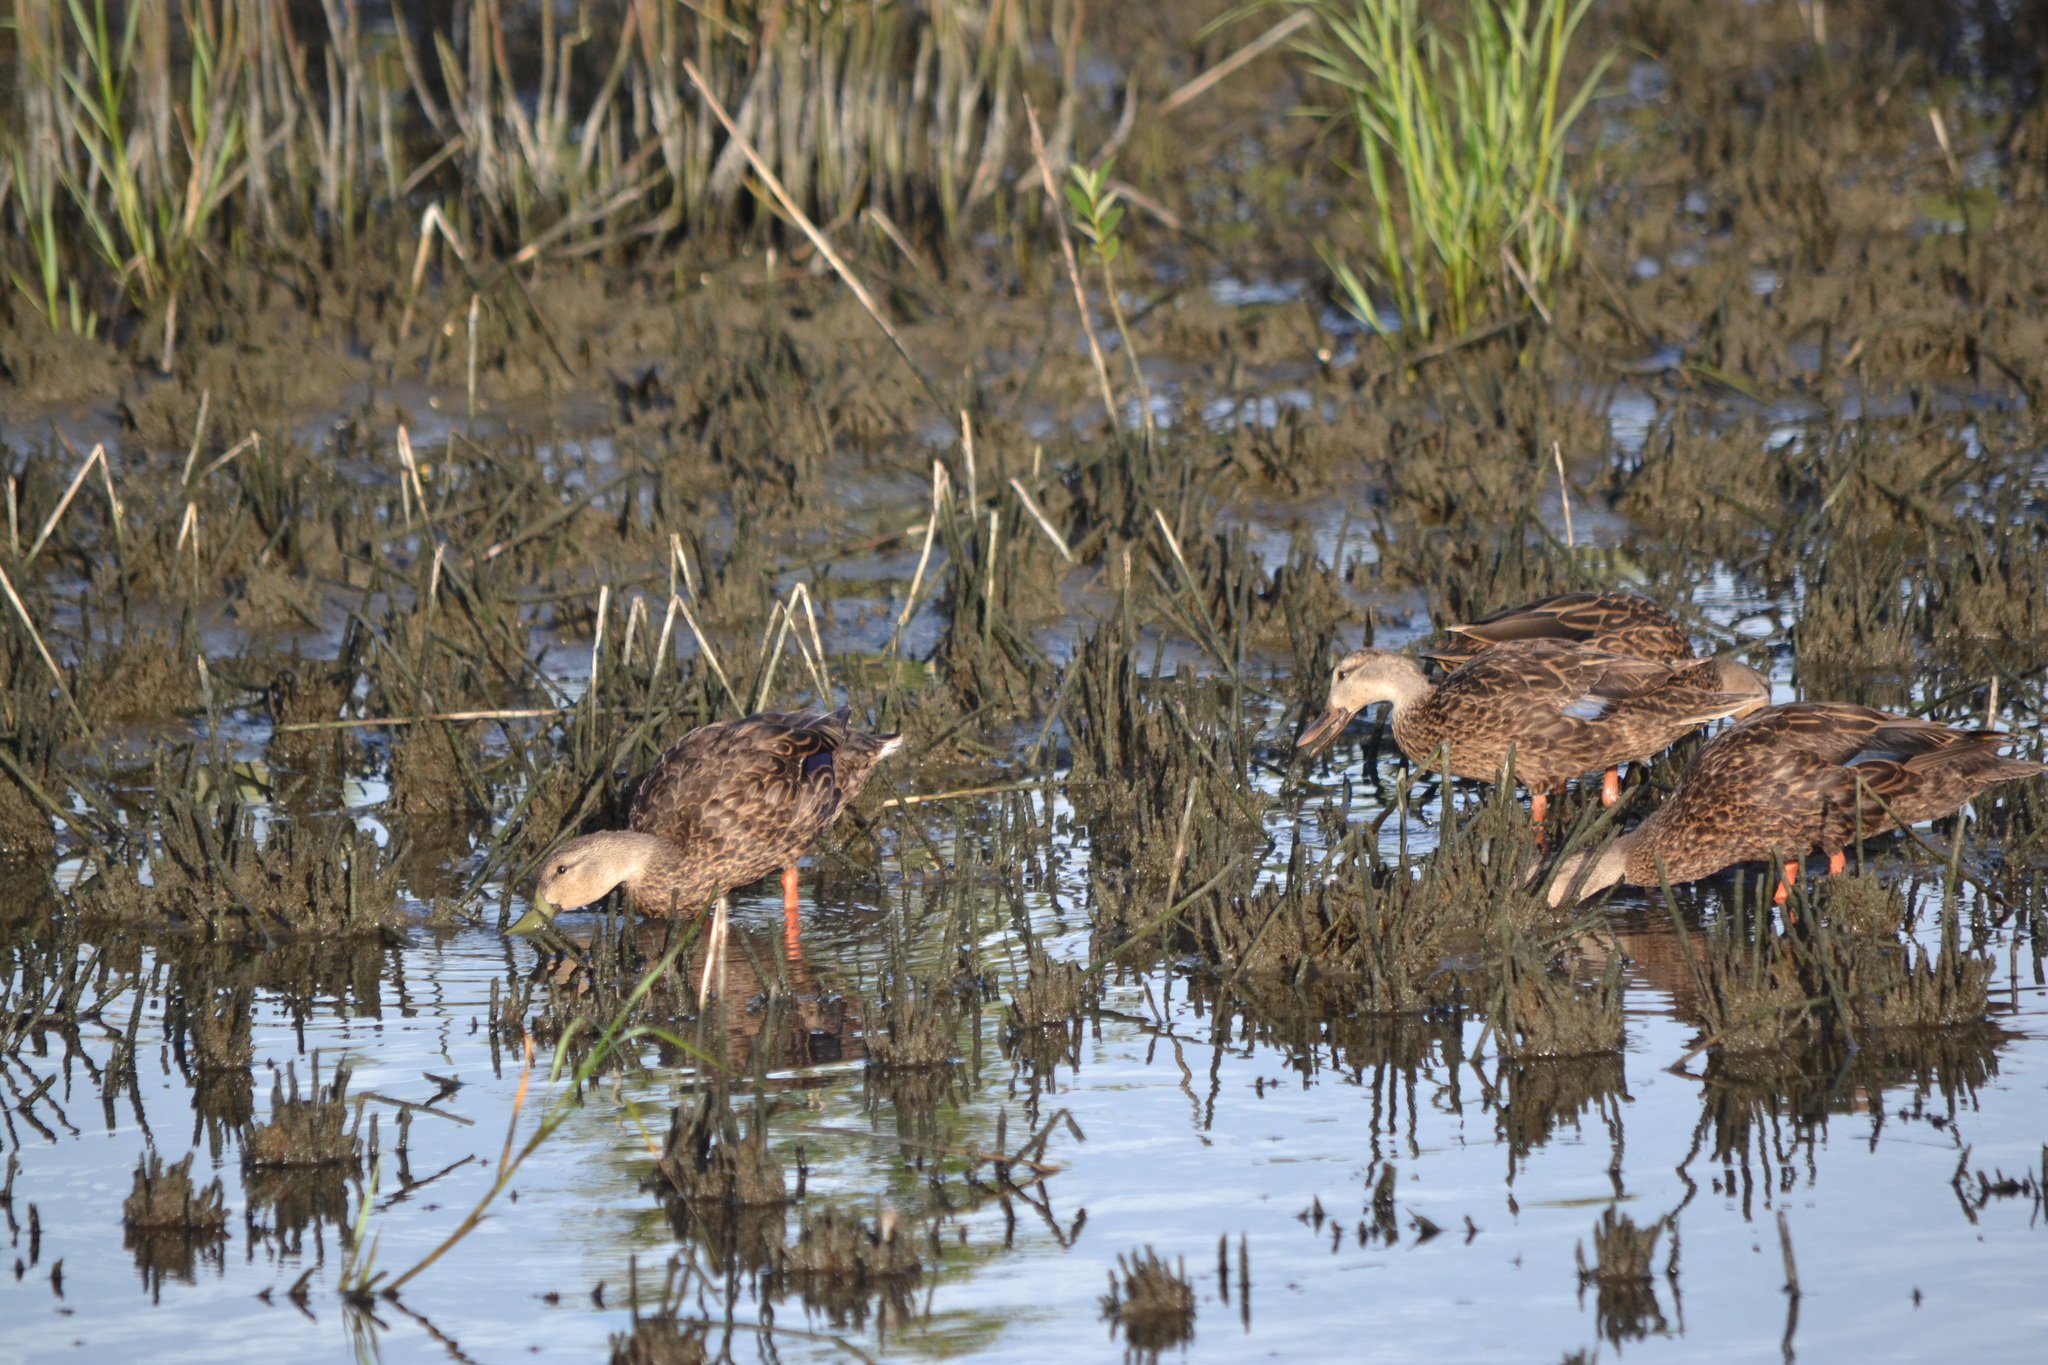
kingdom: Animalia
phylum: Chordata
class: Aves
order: Anseriformes
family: Anatidae
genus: Anas
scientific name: Anas platyrhynchos
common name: Mallard
